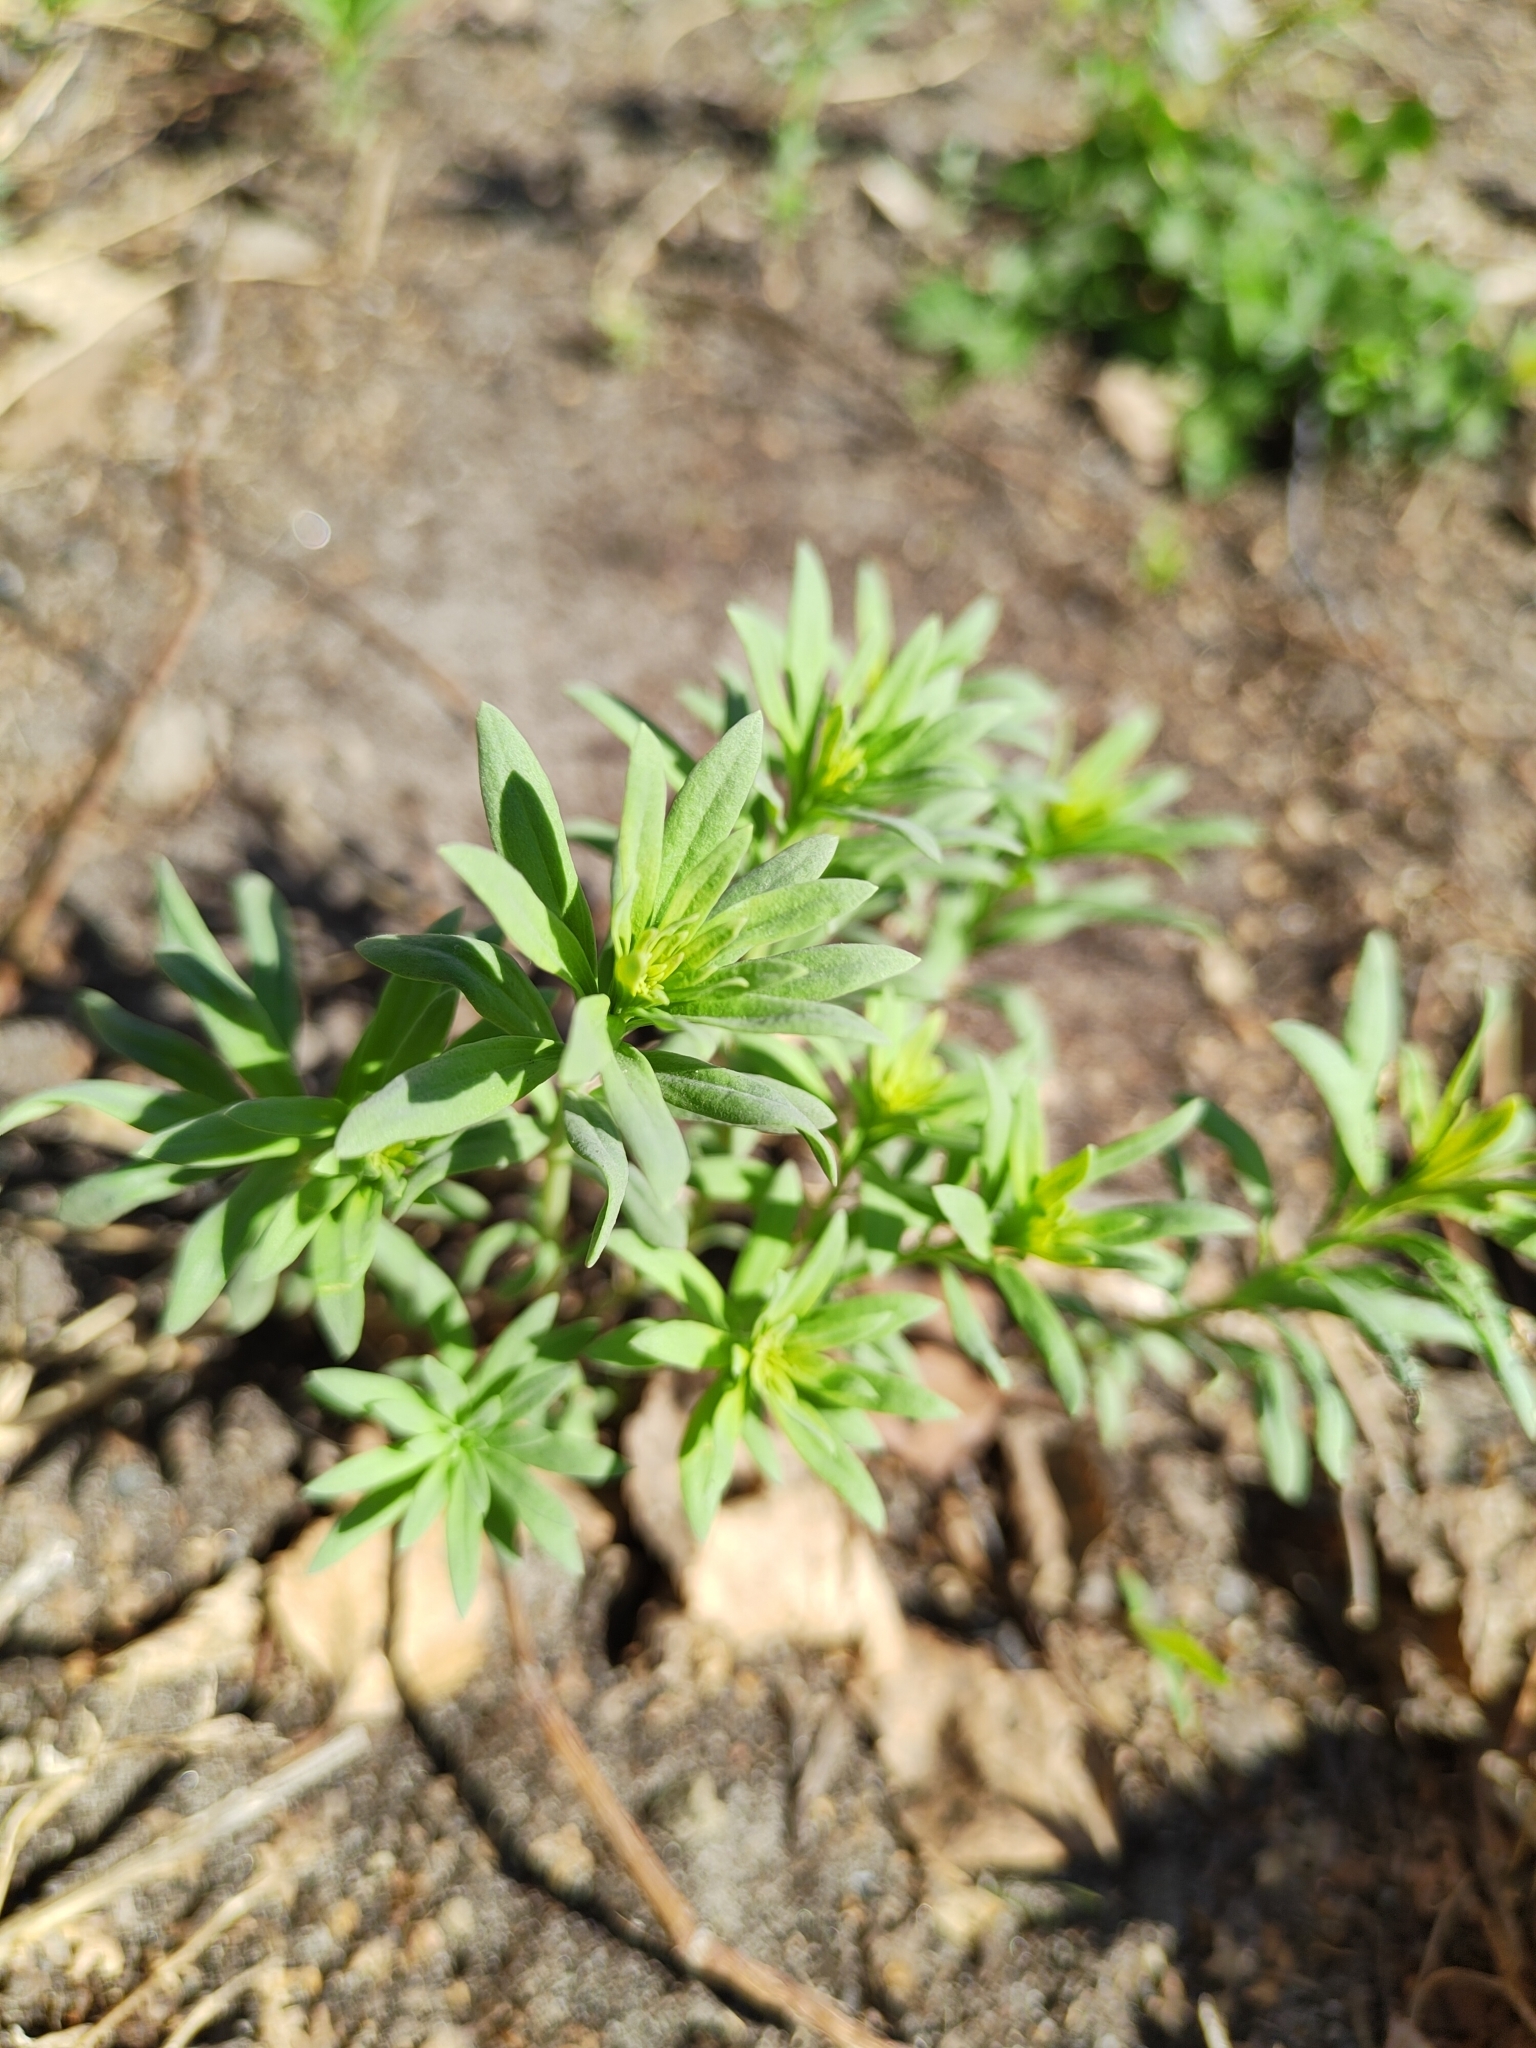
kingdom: Plantae
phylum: Tracheophyta
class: Magnoliopsida
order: Lamiales
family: Plantaginaceae
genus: Linaria
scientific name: Linaria vulgaris
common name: Butter and eggs
